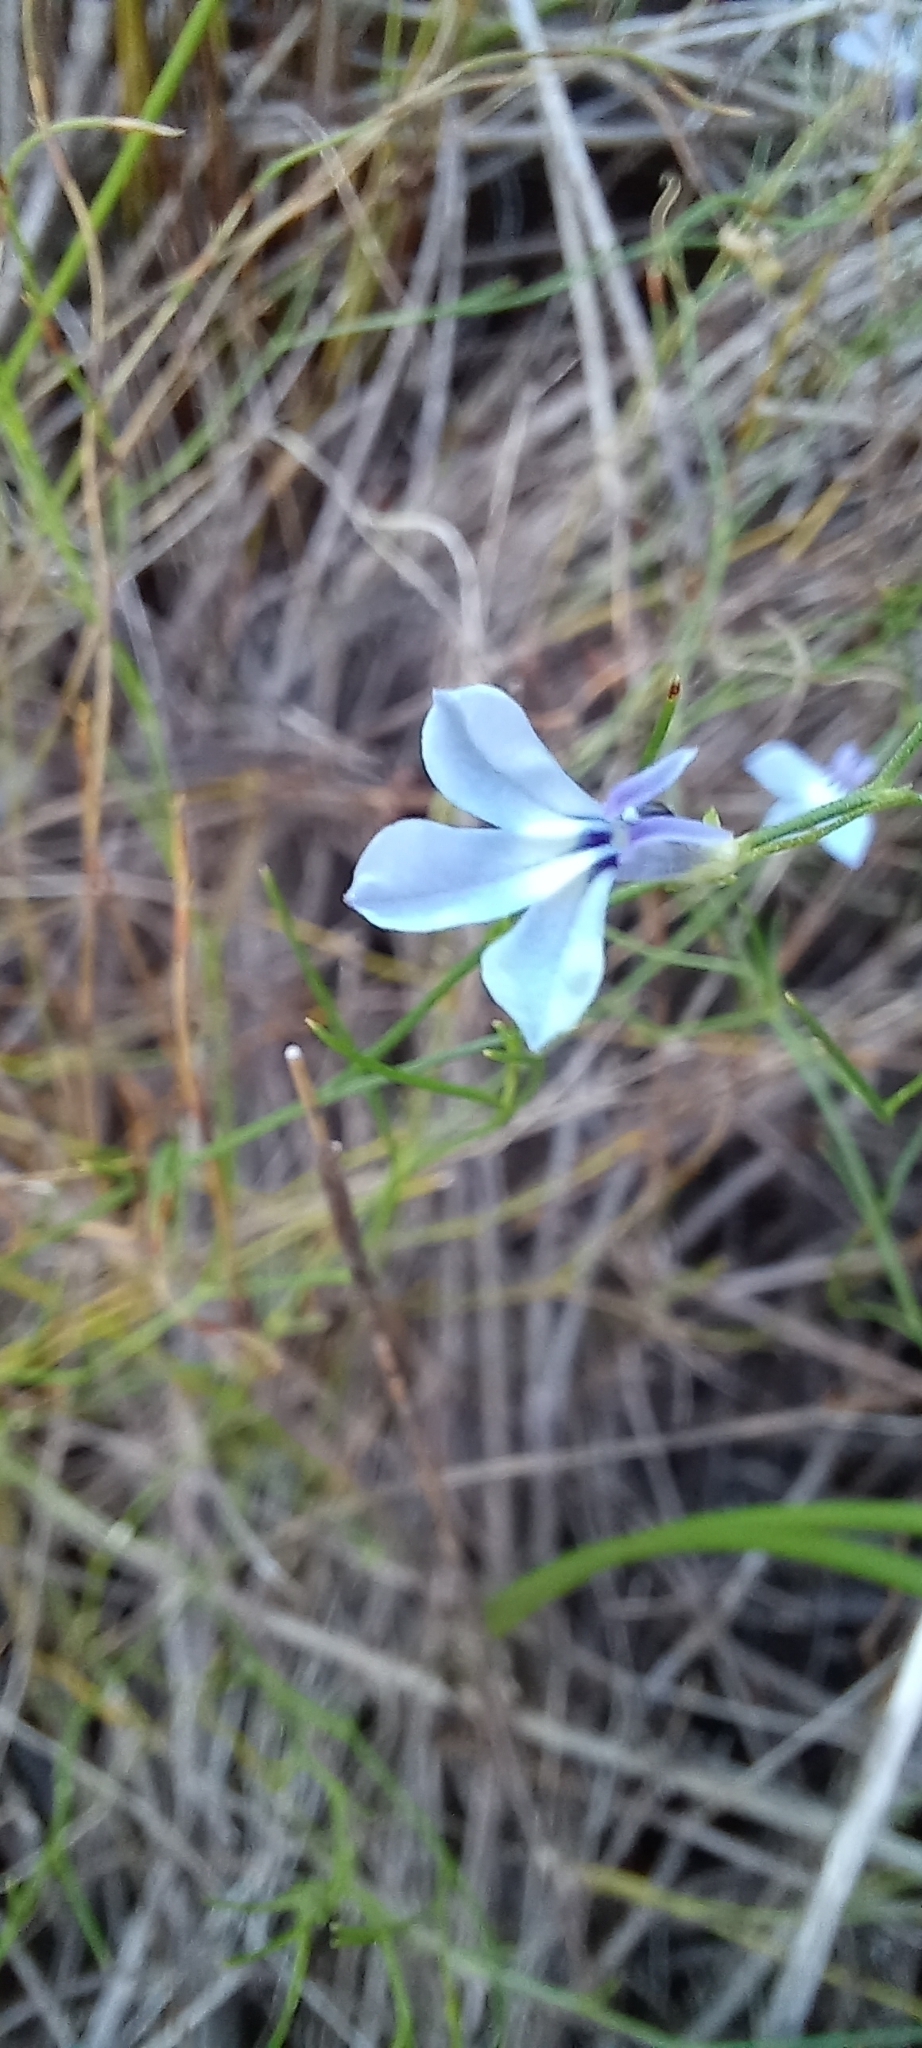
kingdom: Plantae
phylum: Tracheophyta
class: Magnoliopsida
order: Asterales
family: Campanulaceae
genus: Lobelia
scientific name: Lobelia setacea
